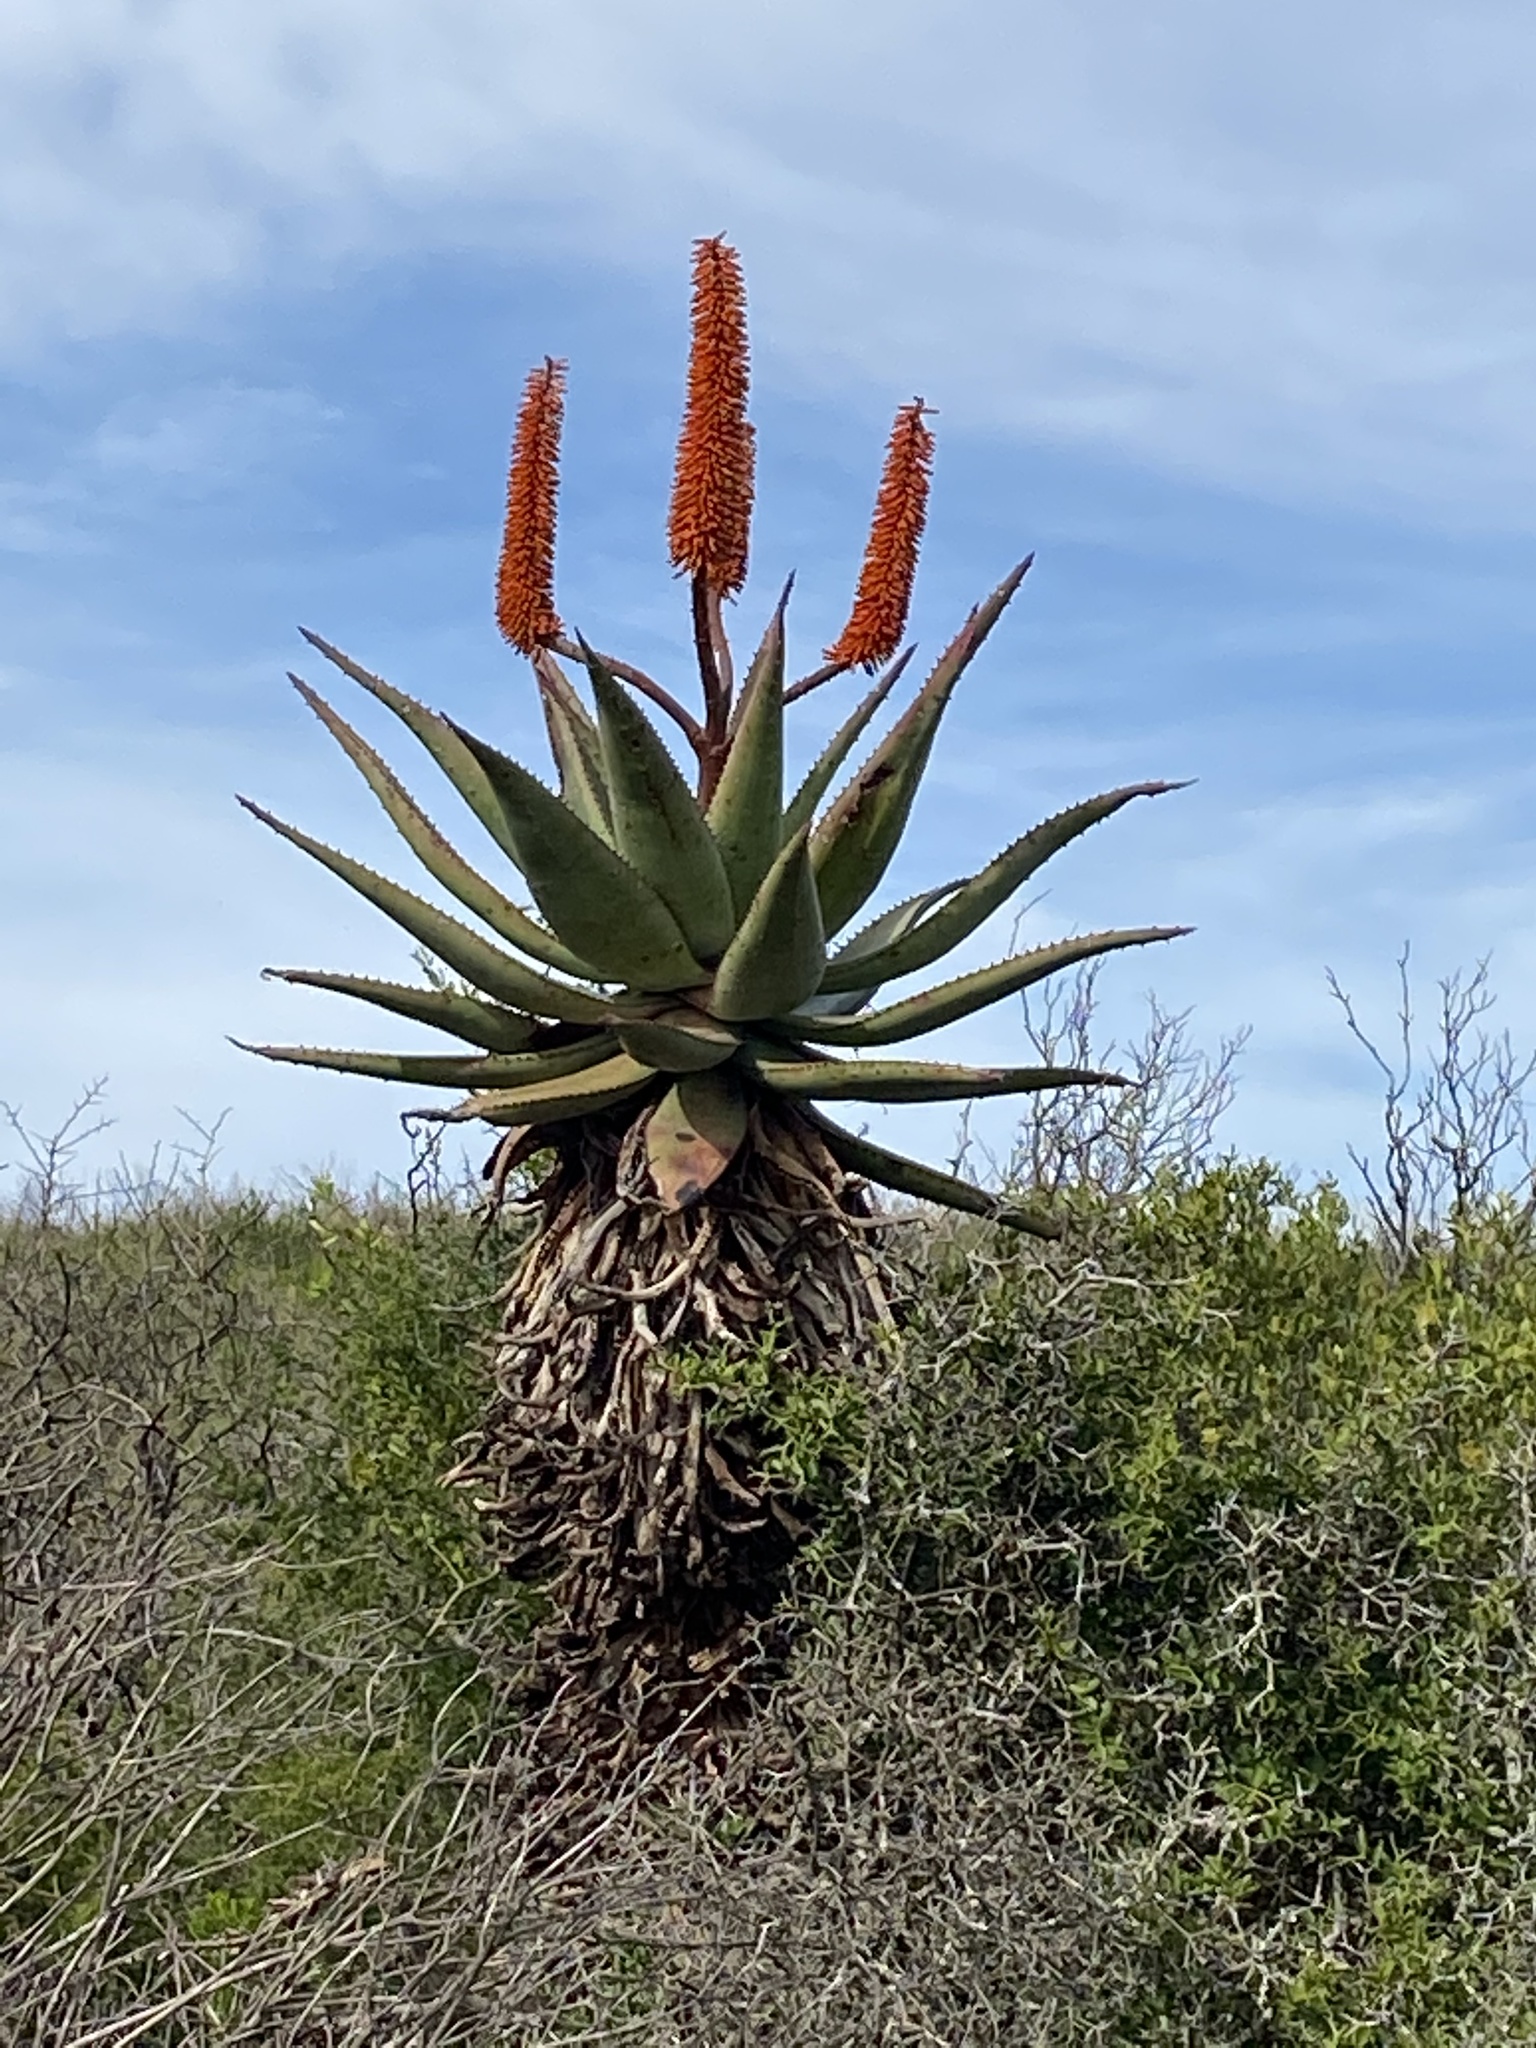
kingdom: Plantae
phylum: Tracheophyta
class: Liliopsida
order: Asparagales
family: Asphodelaceae
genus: Aloe
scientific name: Aloe ferox
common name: Bitter aloe
